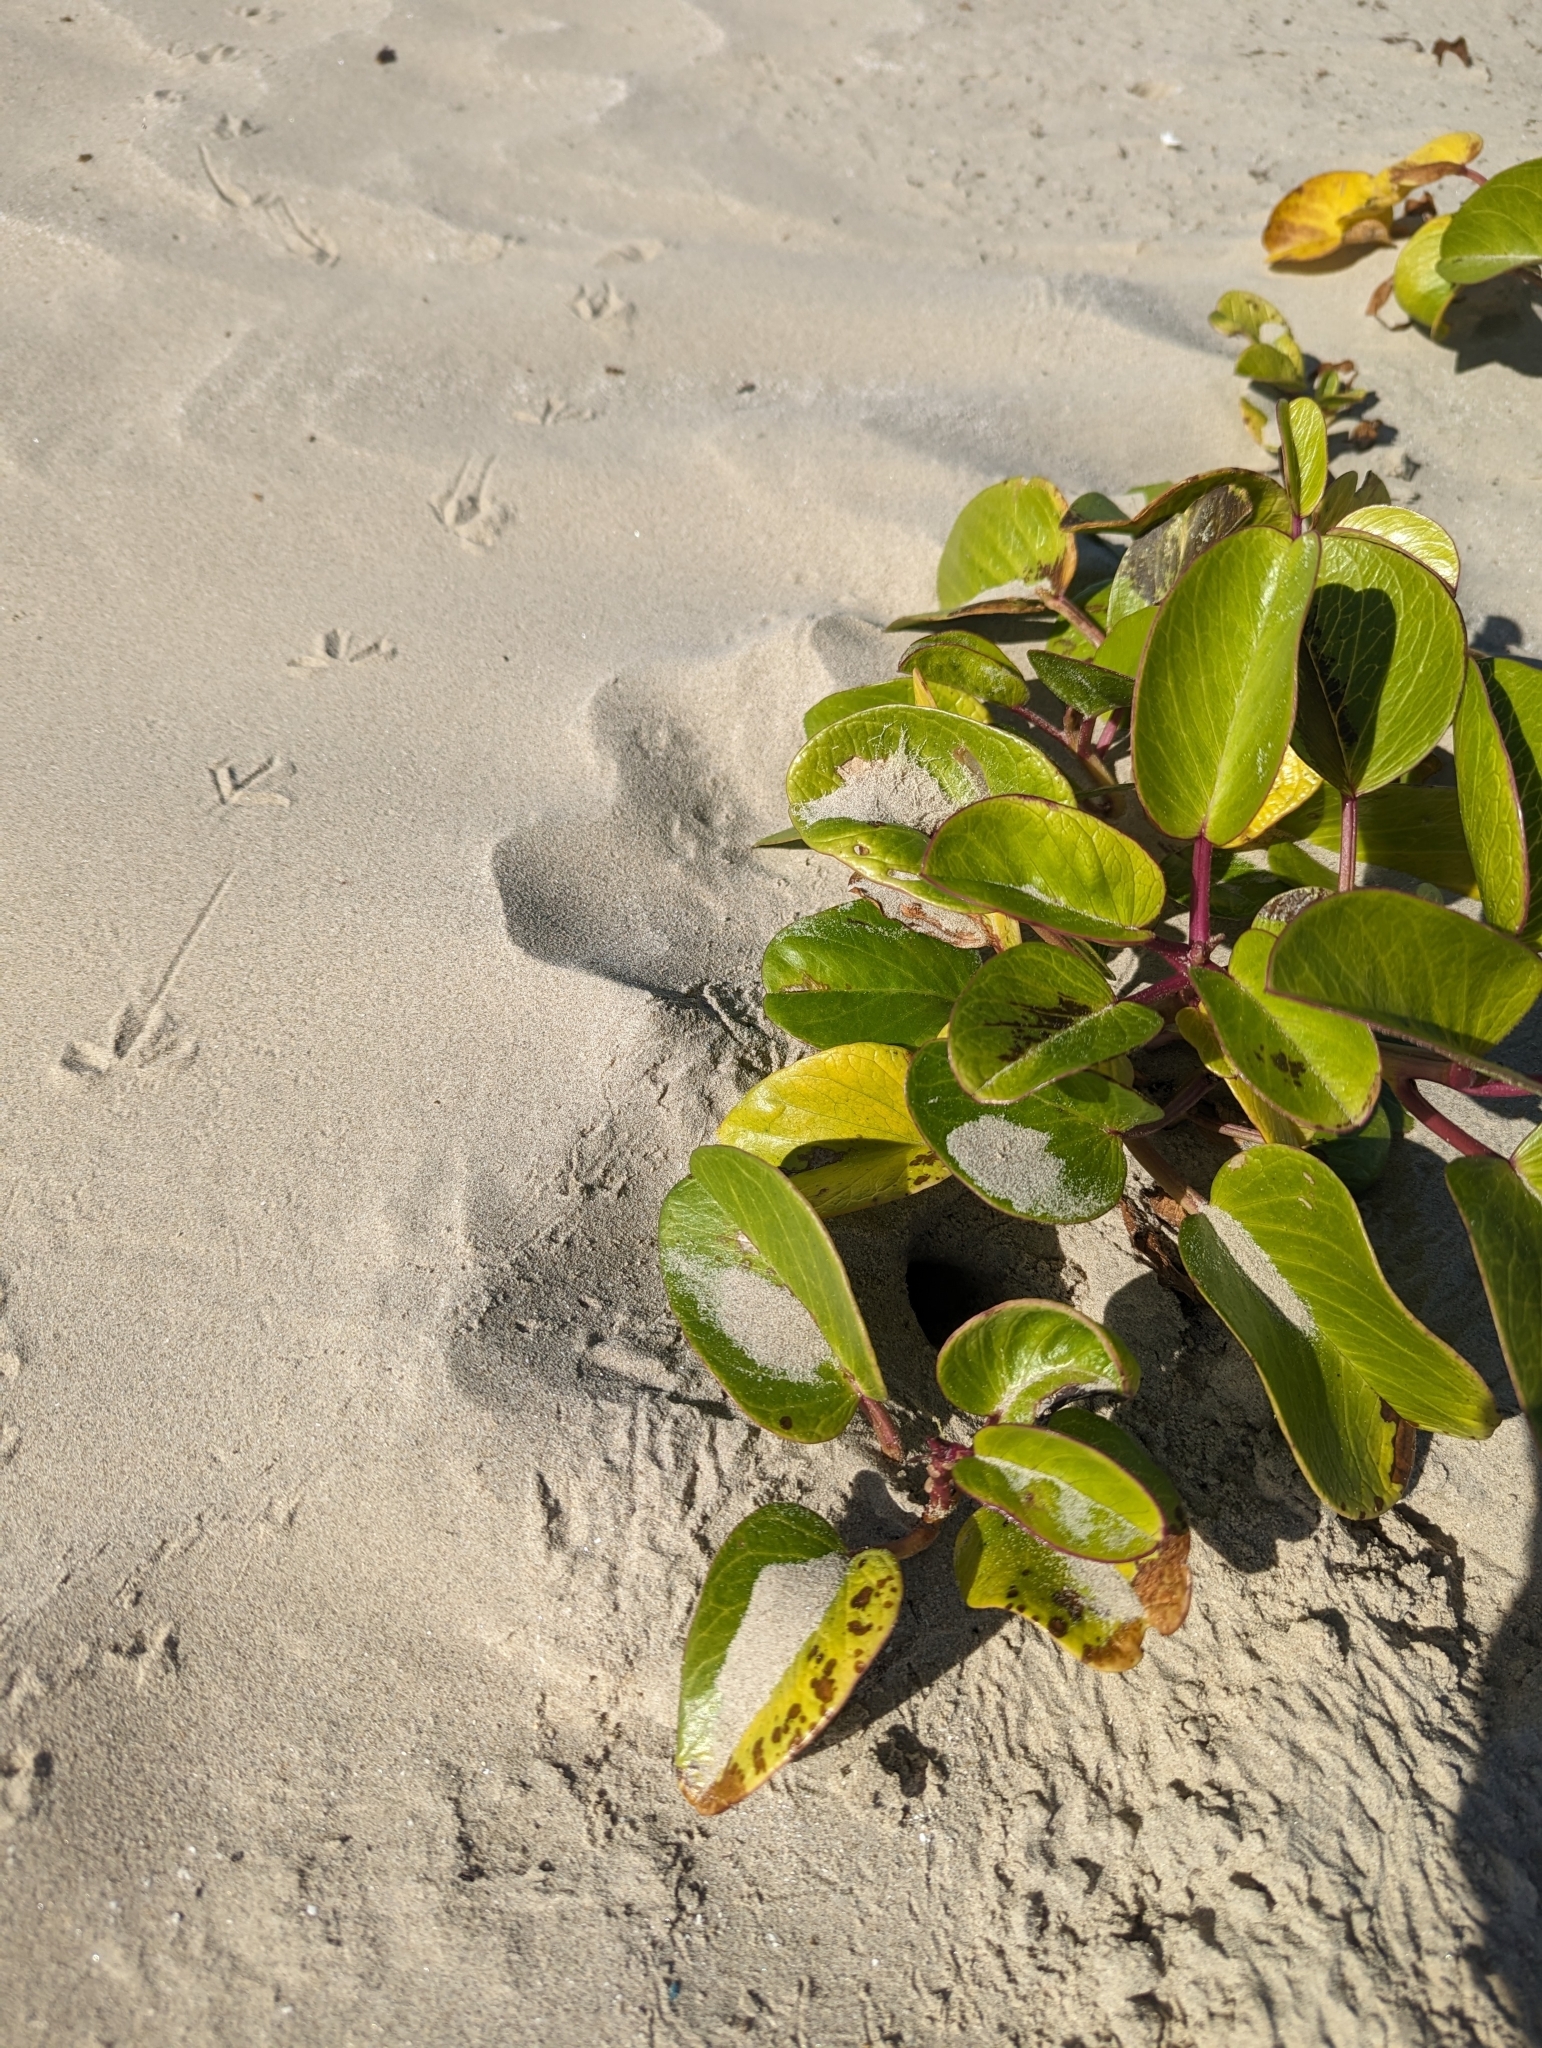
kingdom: Plantae
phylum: Tracheophyta
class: Magnoliopsida
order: Solanales
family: Convolvulaceae
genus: Ipomoea
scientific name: Ipomoea imperati
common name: Fiddle-leaf morning-glory
